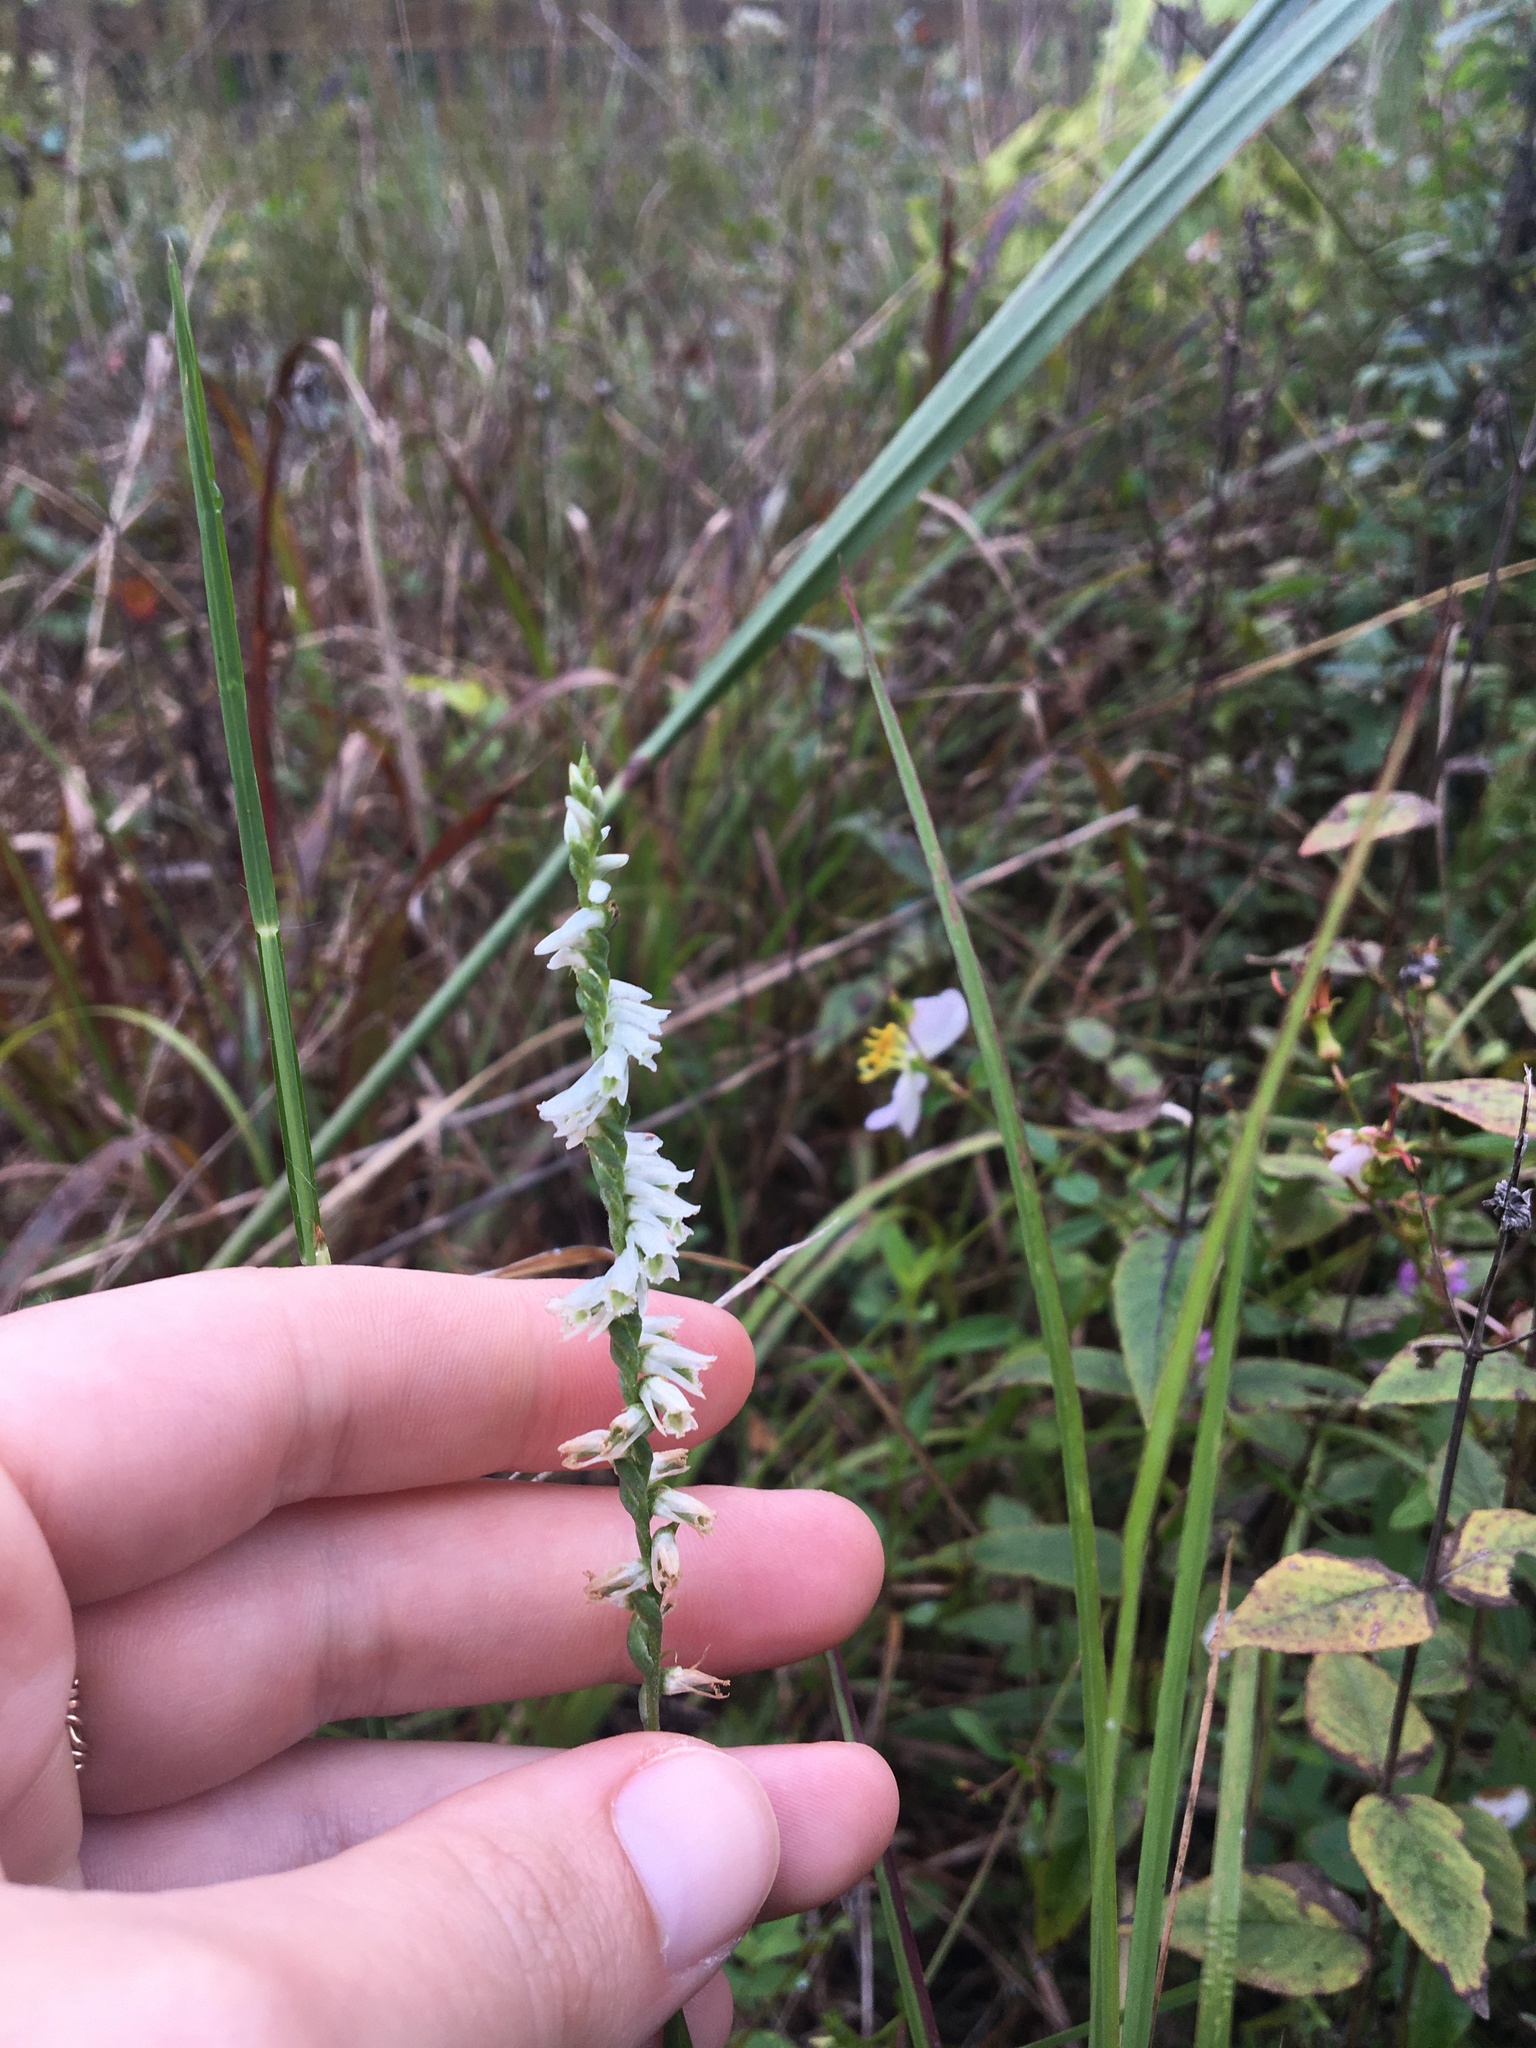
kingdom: Plantae
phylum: Tracheophyta
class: Liliopsida
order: Asparagales
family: Orchidaceae
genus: Spiranthes
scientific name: Spiranthes lacera
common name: Northern slender ladies'-tresses
